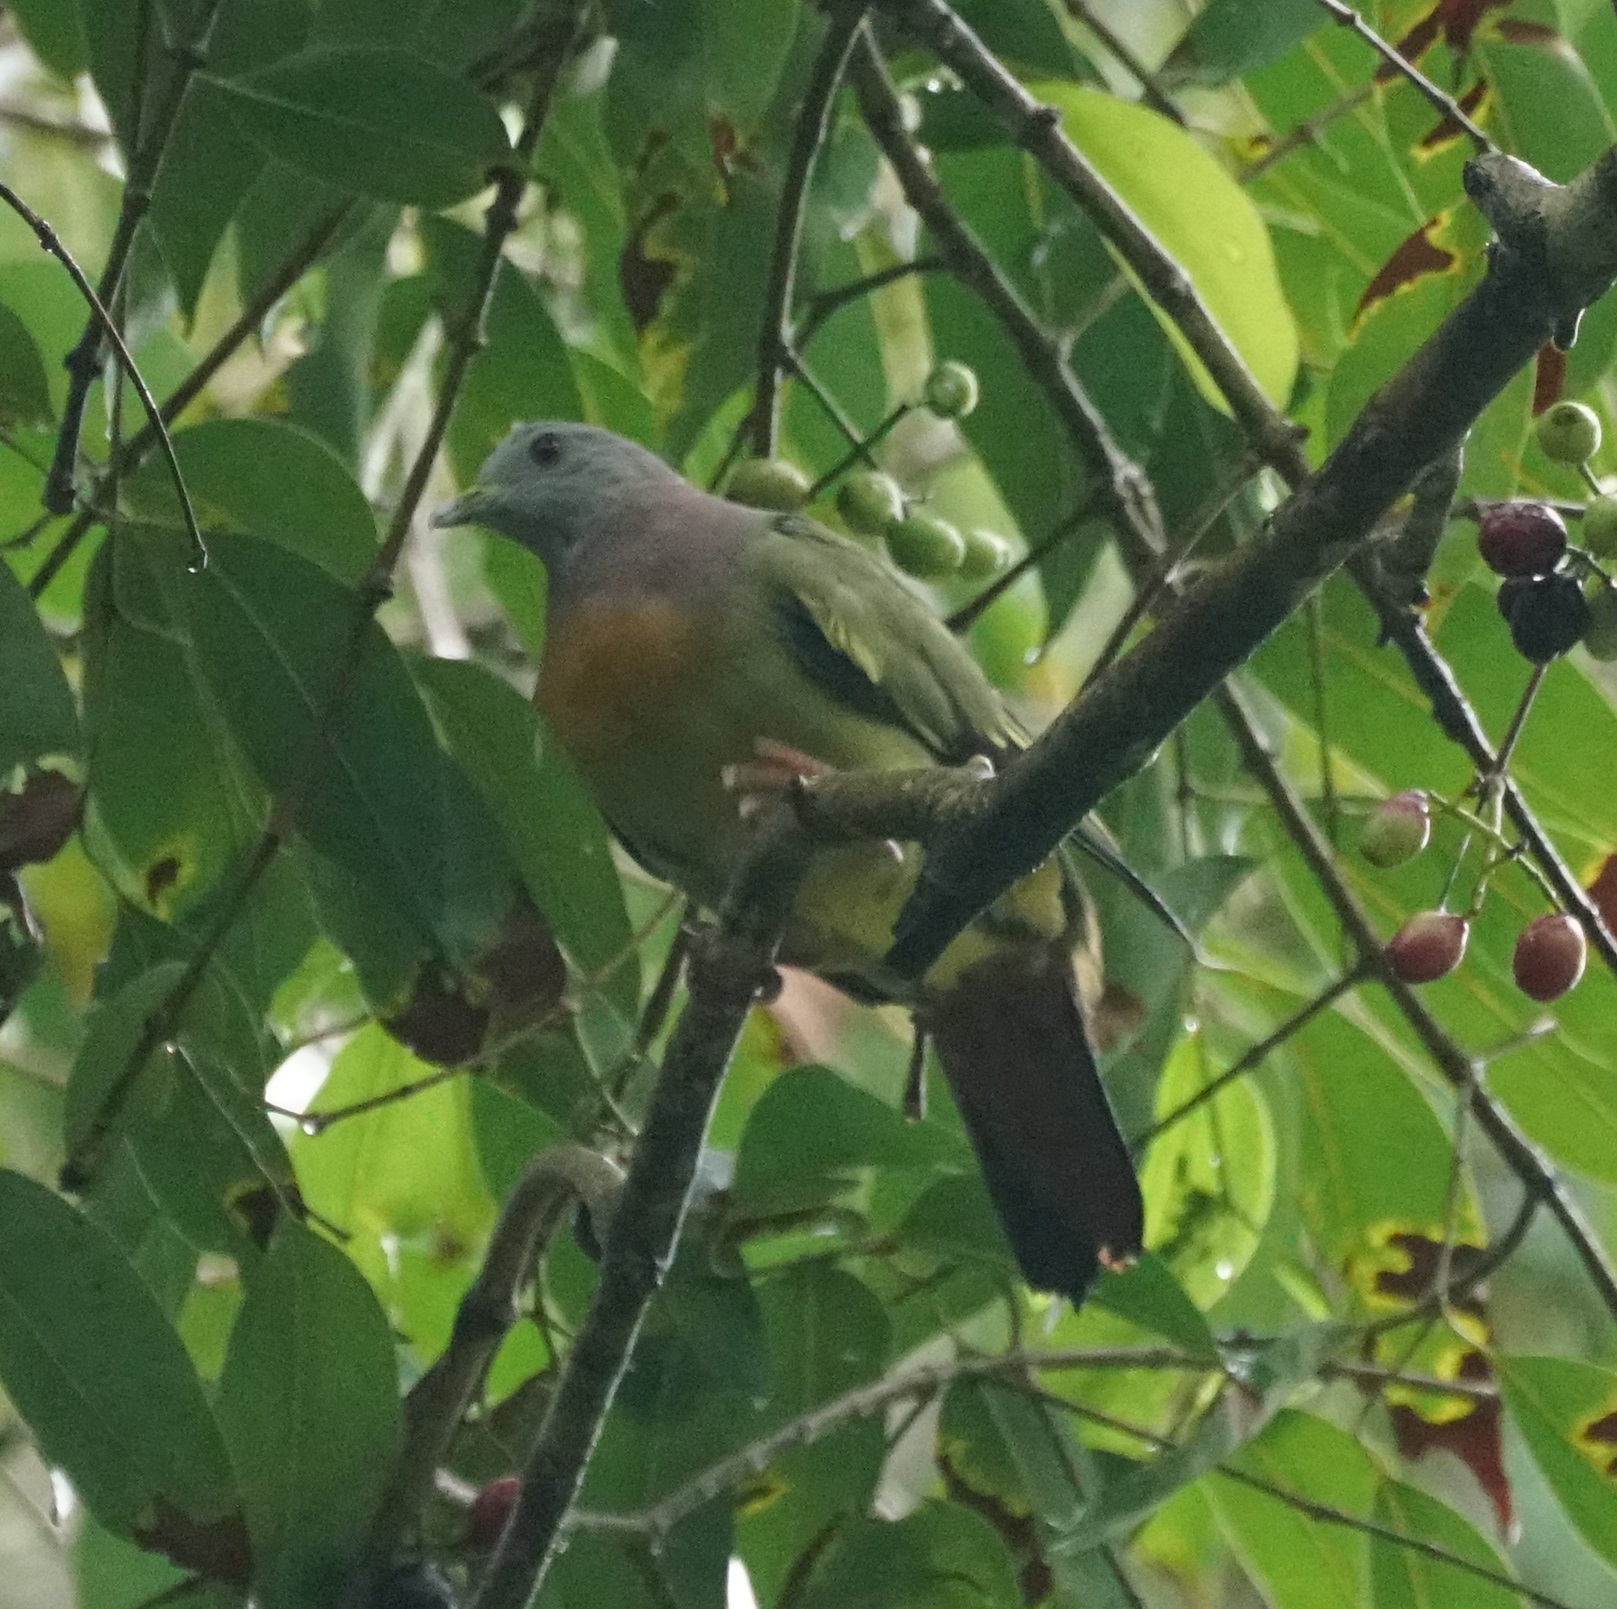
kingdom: Animalia
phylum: Chordata
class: Aves
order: Columbiformes
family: Columbidae
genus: Treron
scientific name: Treron vernans
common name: Pink-necked green pigeon
